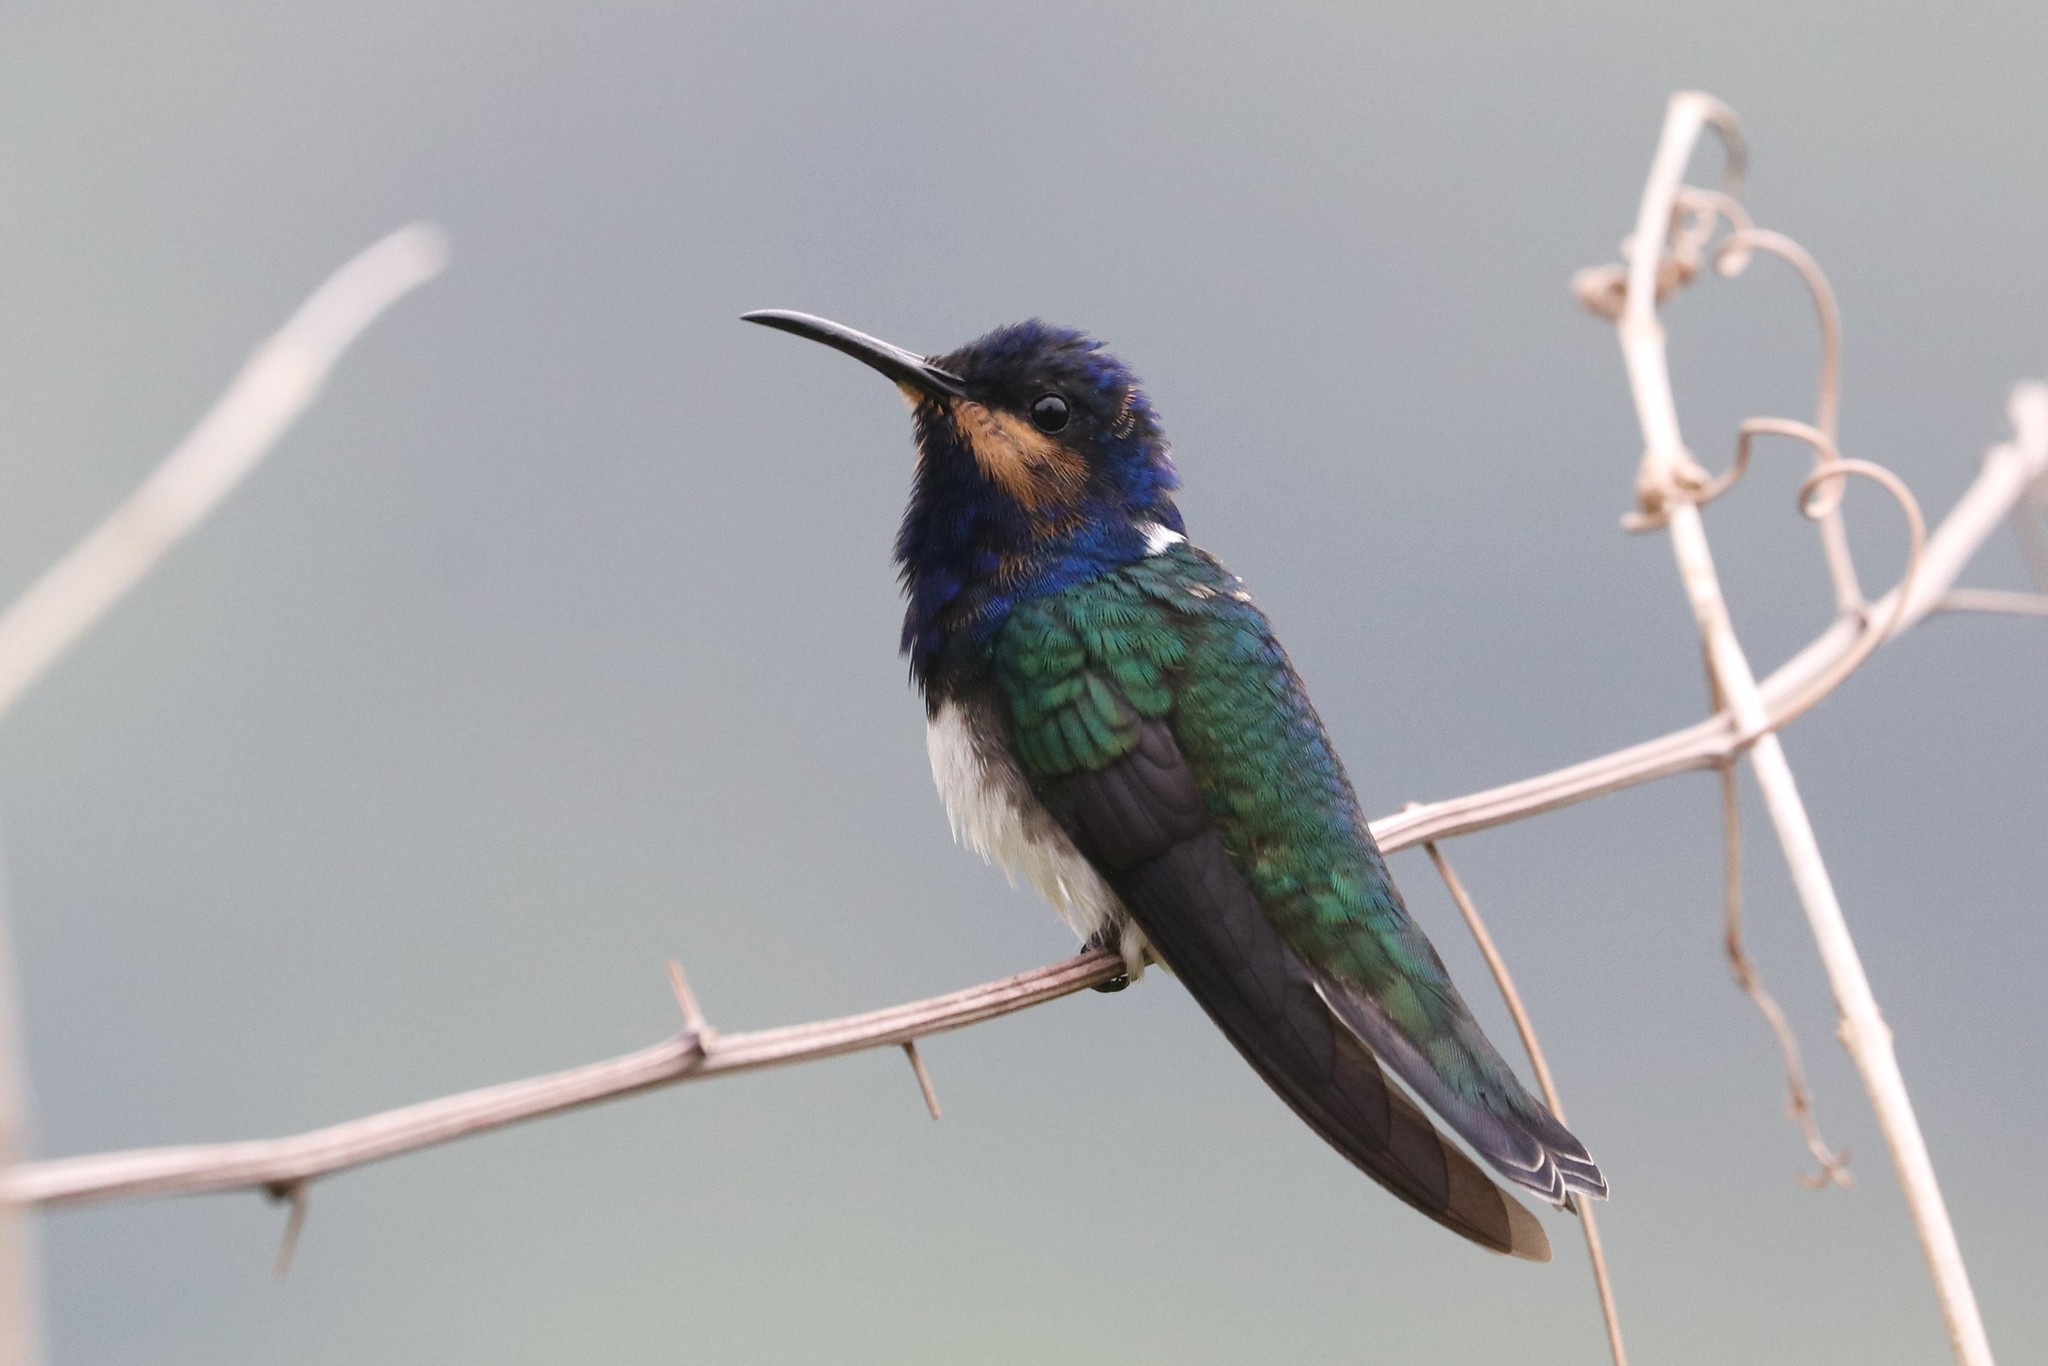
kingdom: Animalia
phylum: Chordata
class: Aves
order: Apodiformes
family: Trochilidae
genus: Florisuga
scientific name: Florisuga mellivora
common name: White-necked jacobin
